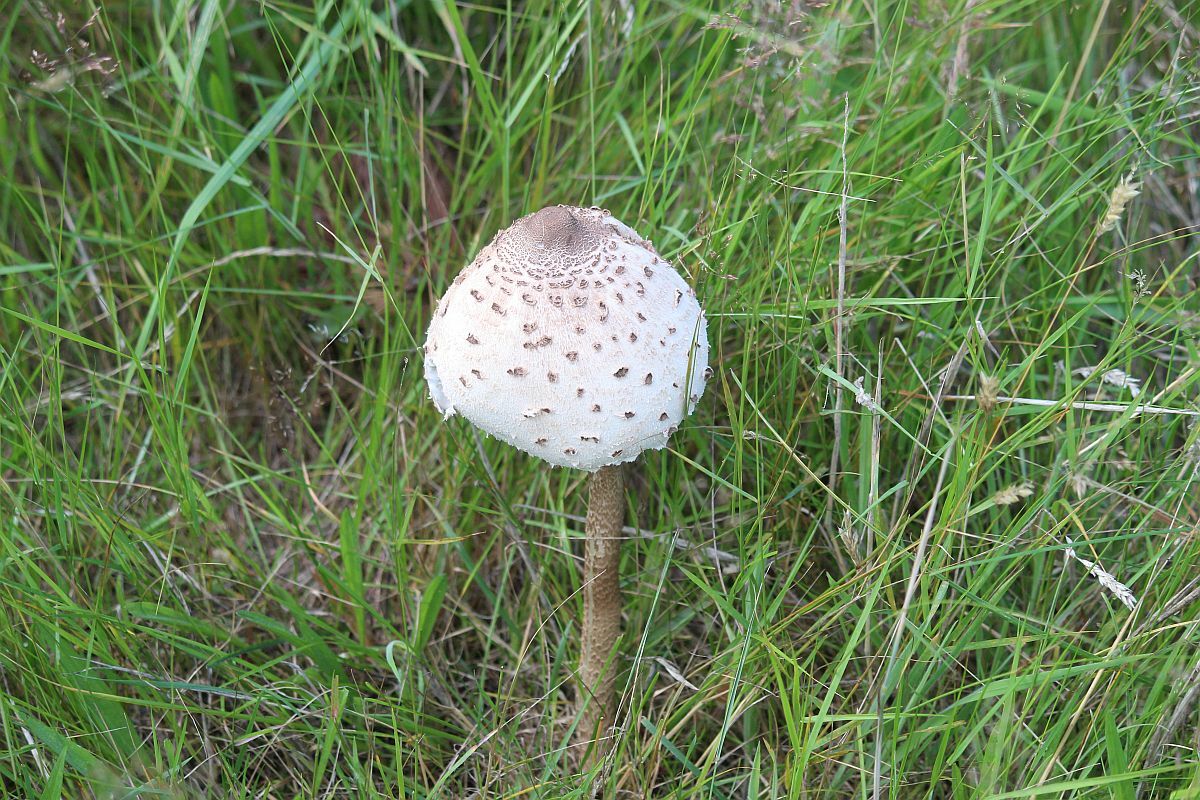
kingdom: Fungi
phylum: Basidiomycota
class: Agaricomycetes
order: Agaricales
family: Agaricaceae
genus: Macrolepiota
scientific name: Macrolepiota procera
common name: Parasol
